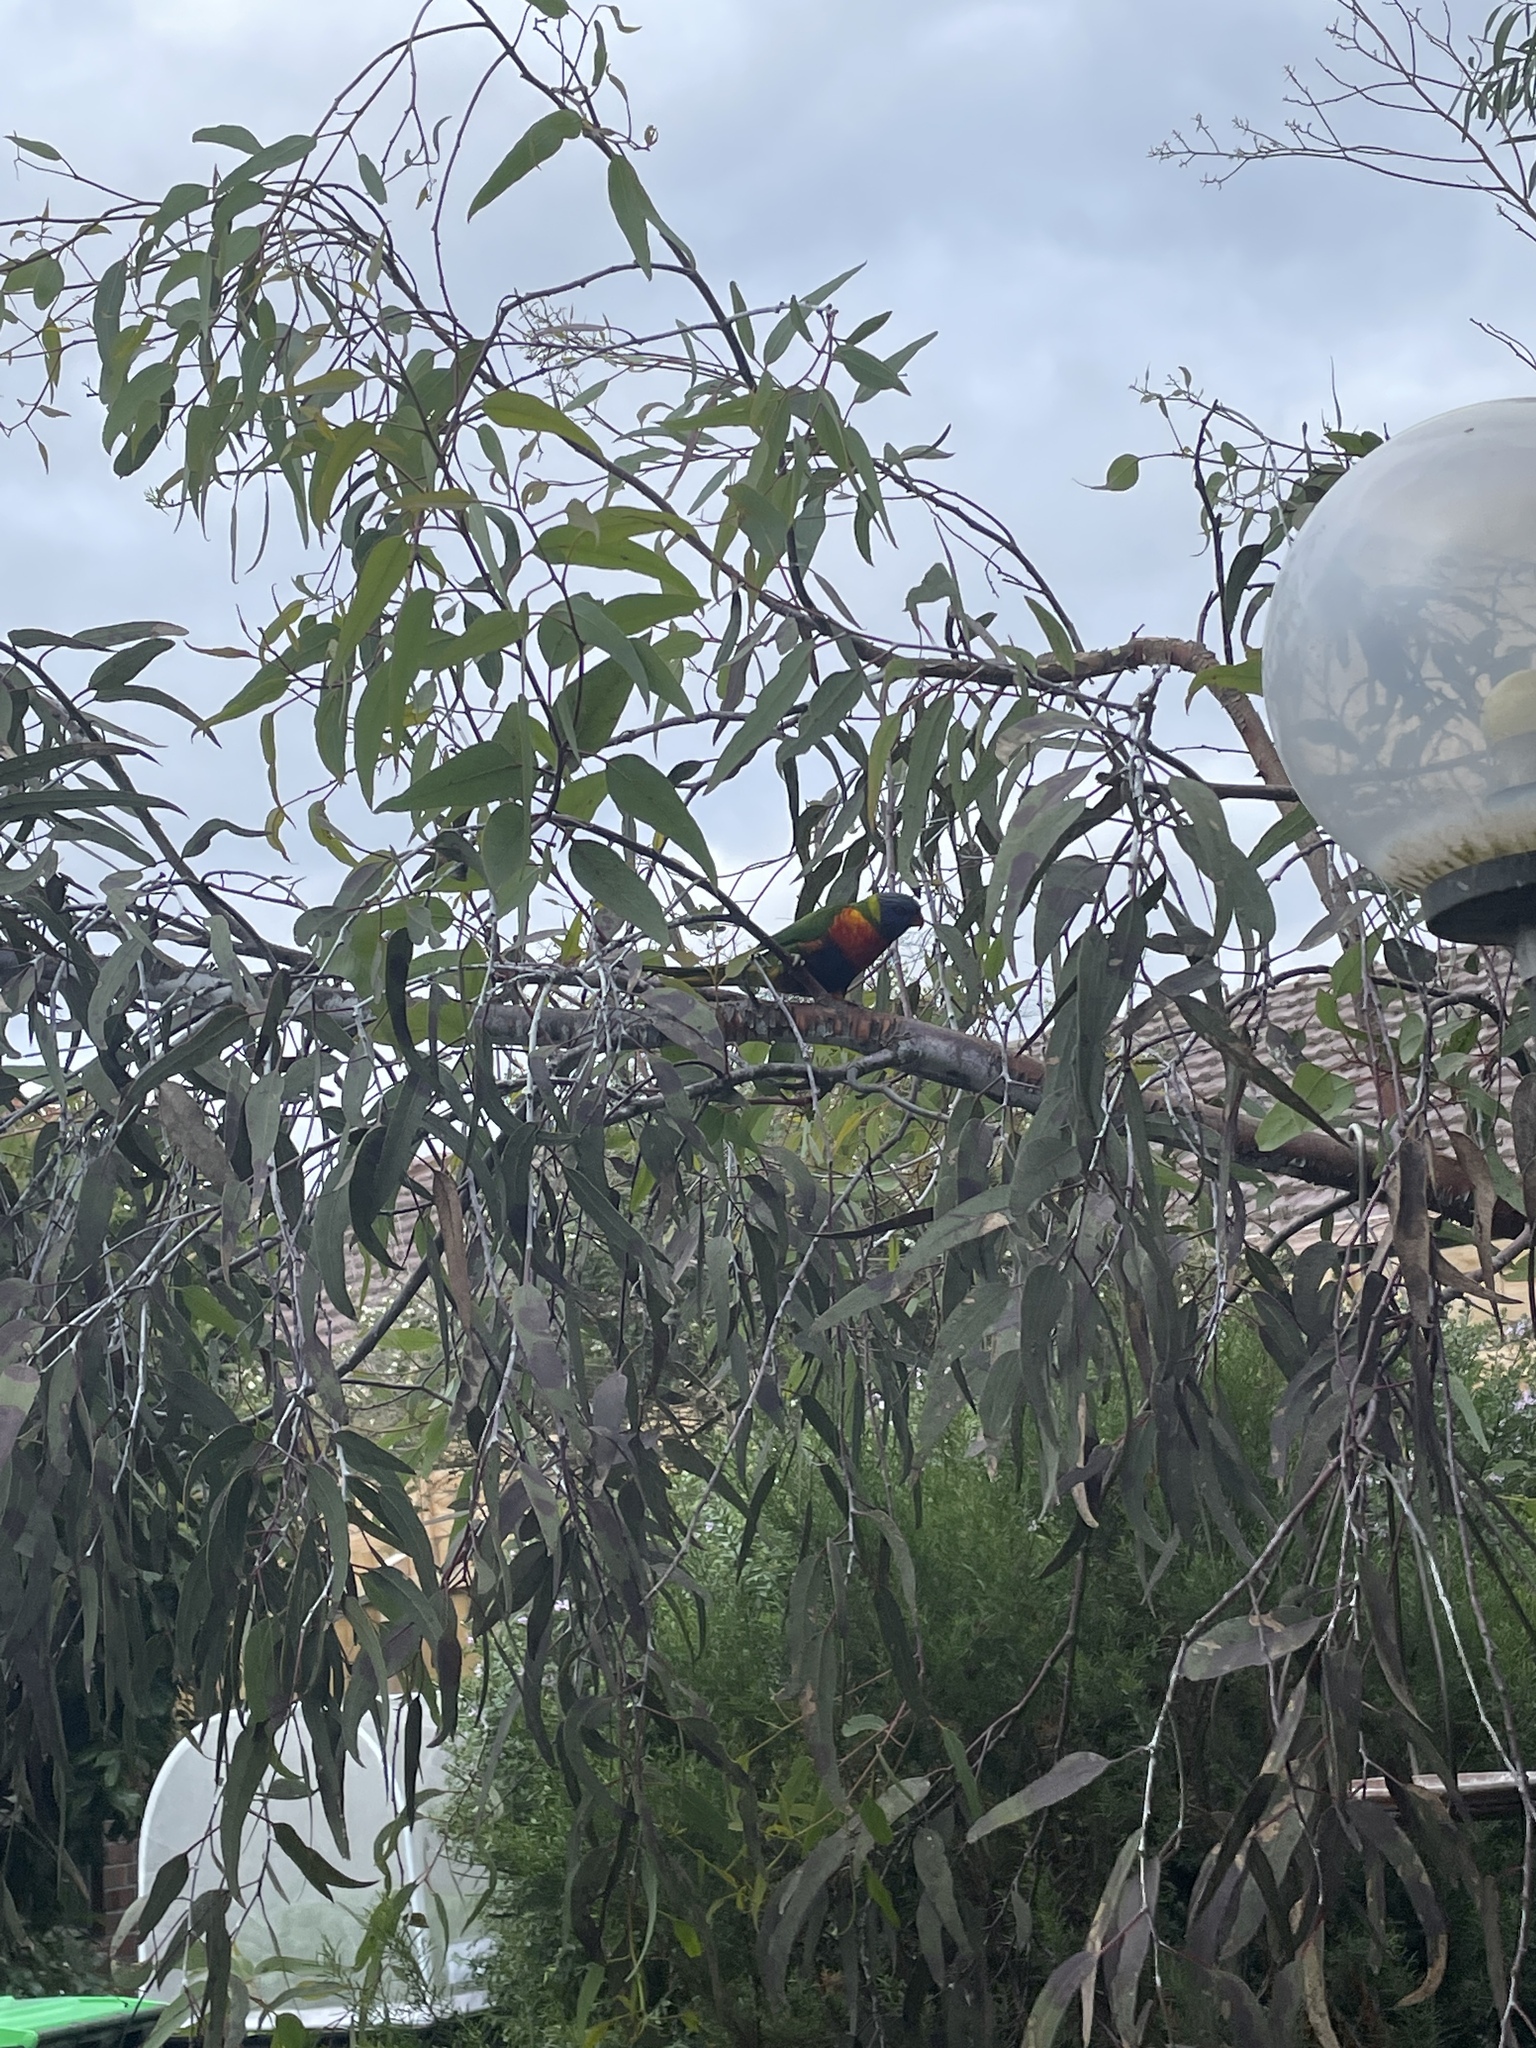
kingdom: Animalia
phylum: Chordata
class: Aves
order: Psittaciformes
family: Psittacidae
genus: Trichoglossus
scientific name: Trichoglossus haematodus
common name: Coconut lorikeet
